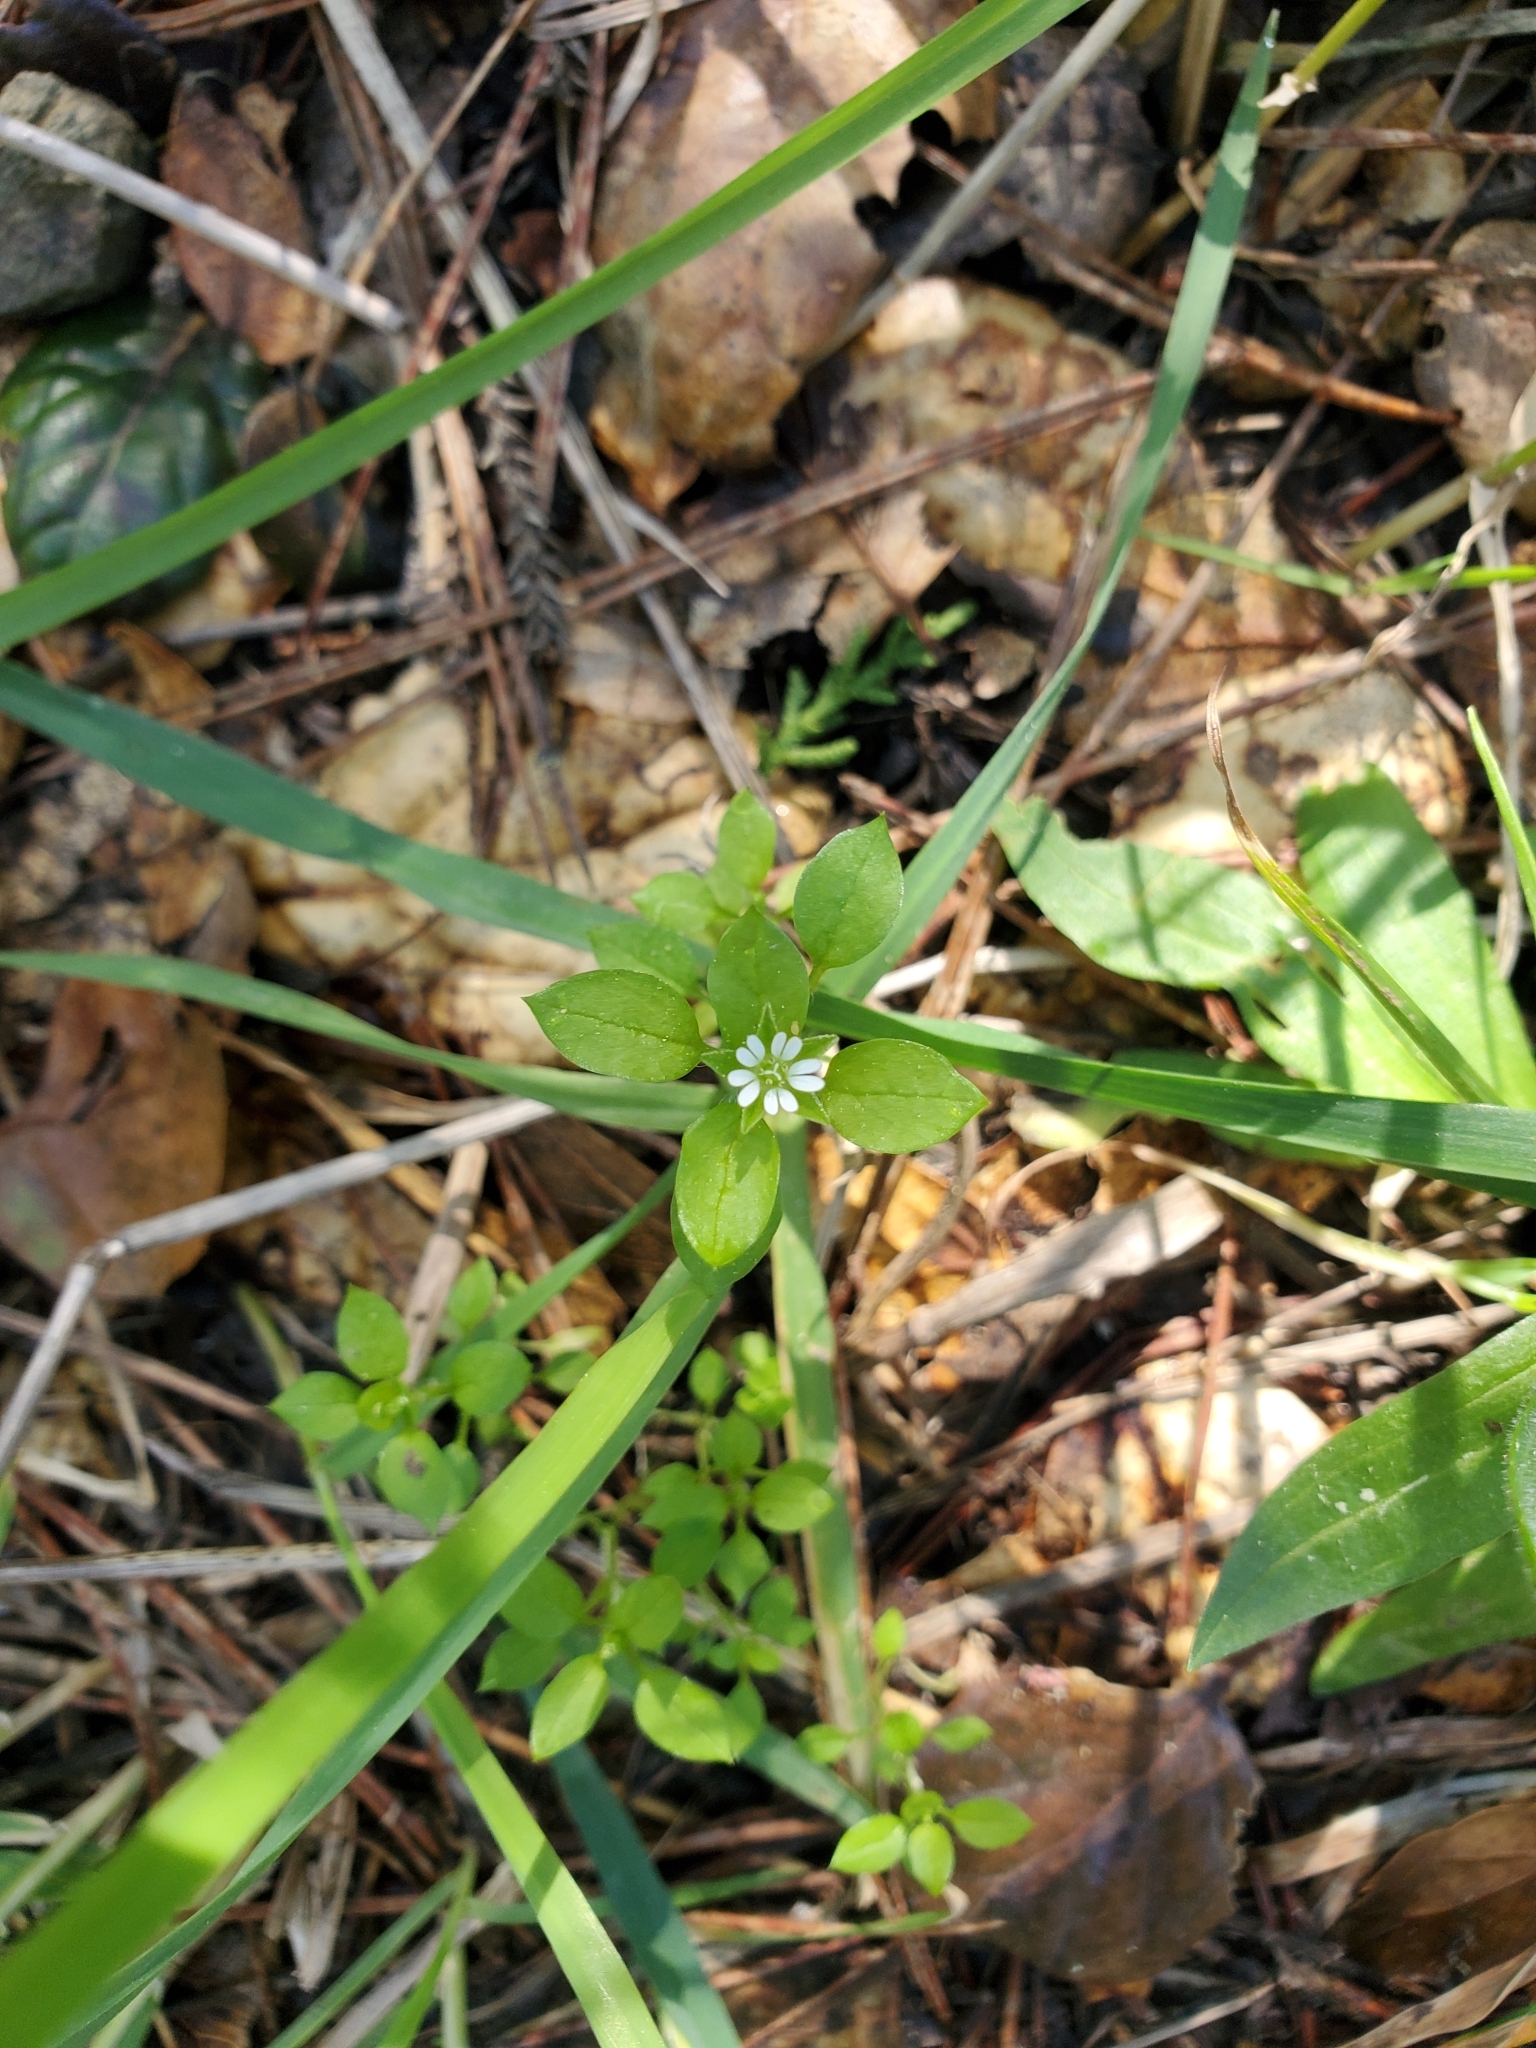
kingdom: Plantae
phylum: Tracheophyta
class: Magnoliopsida
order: Caryophyllales
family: Caryophyllaceae
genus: Stellaria
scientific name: Stellaria media
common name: Common chickweed
